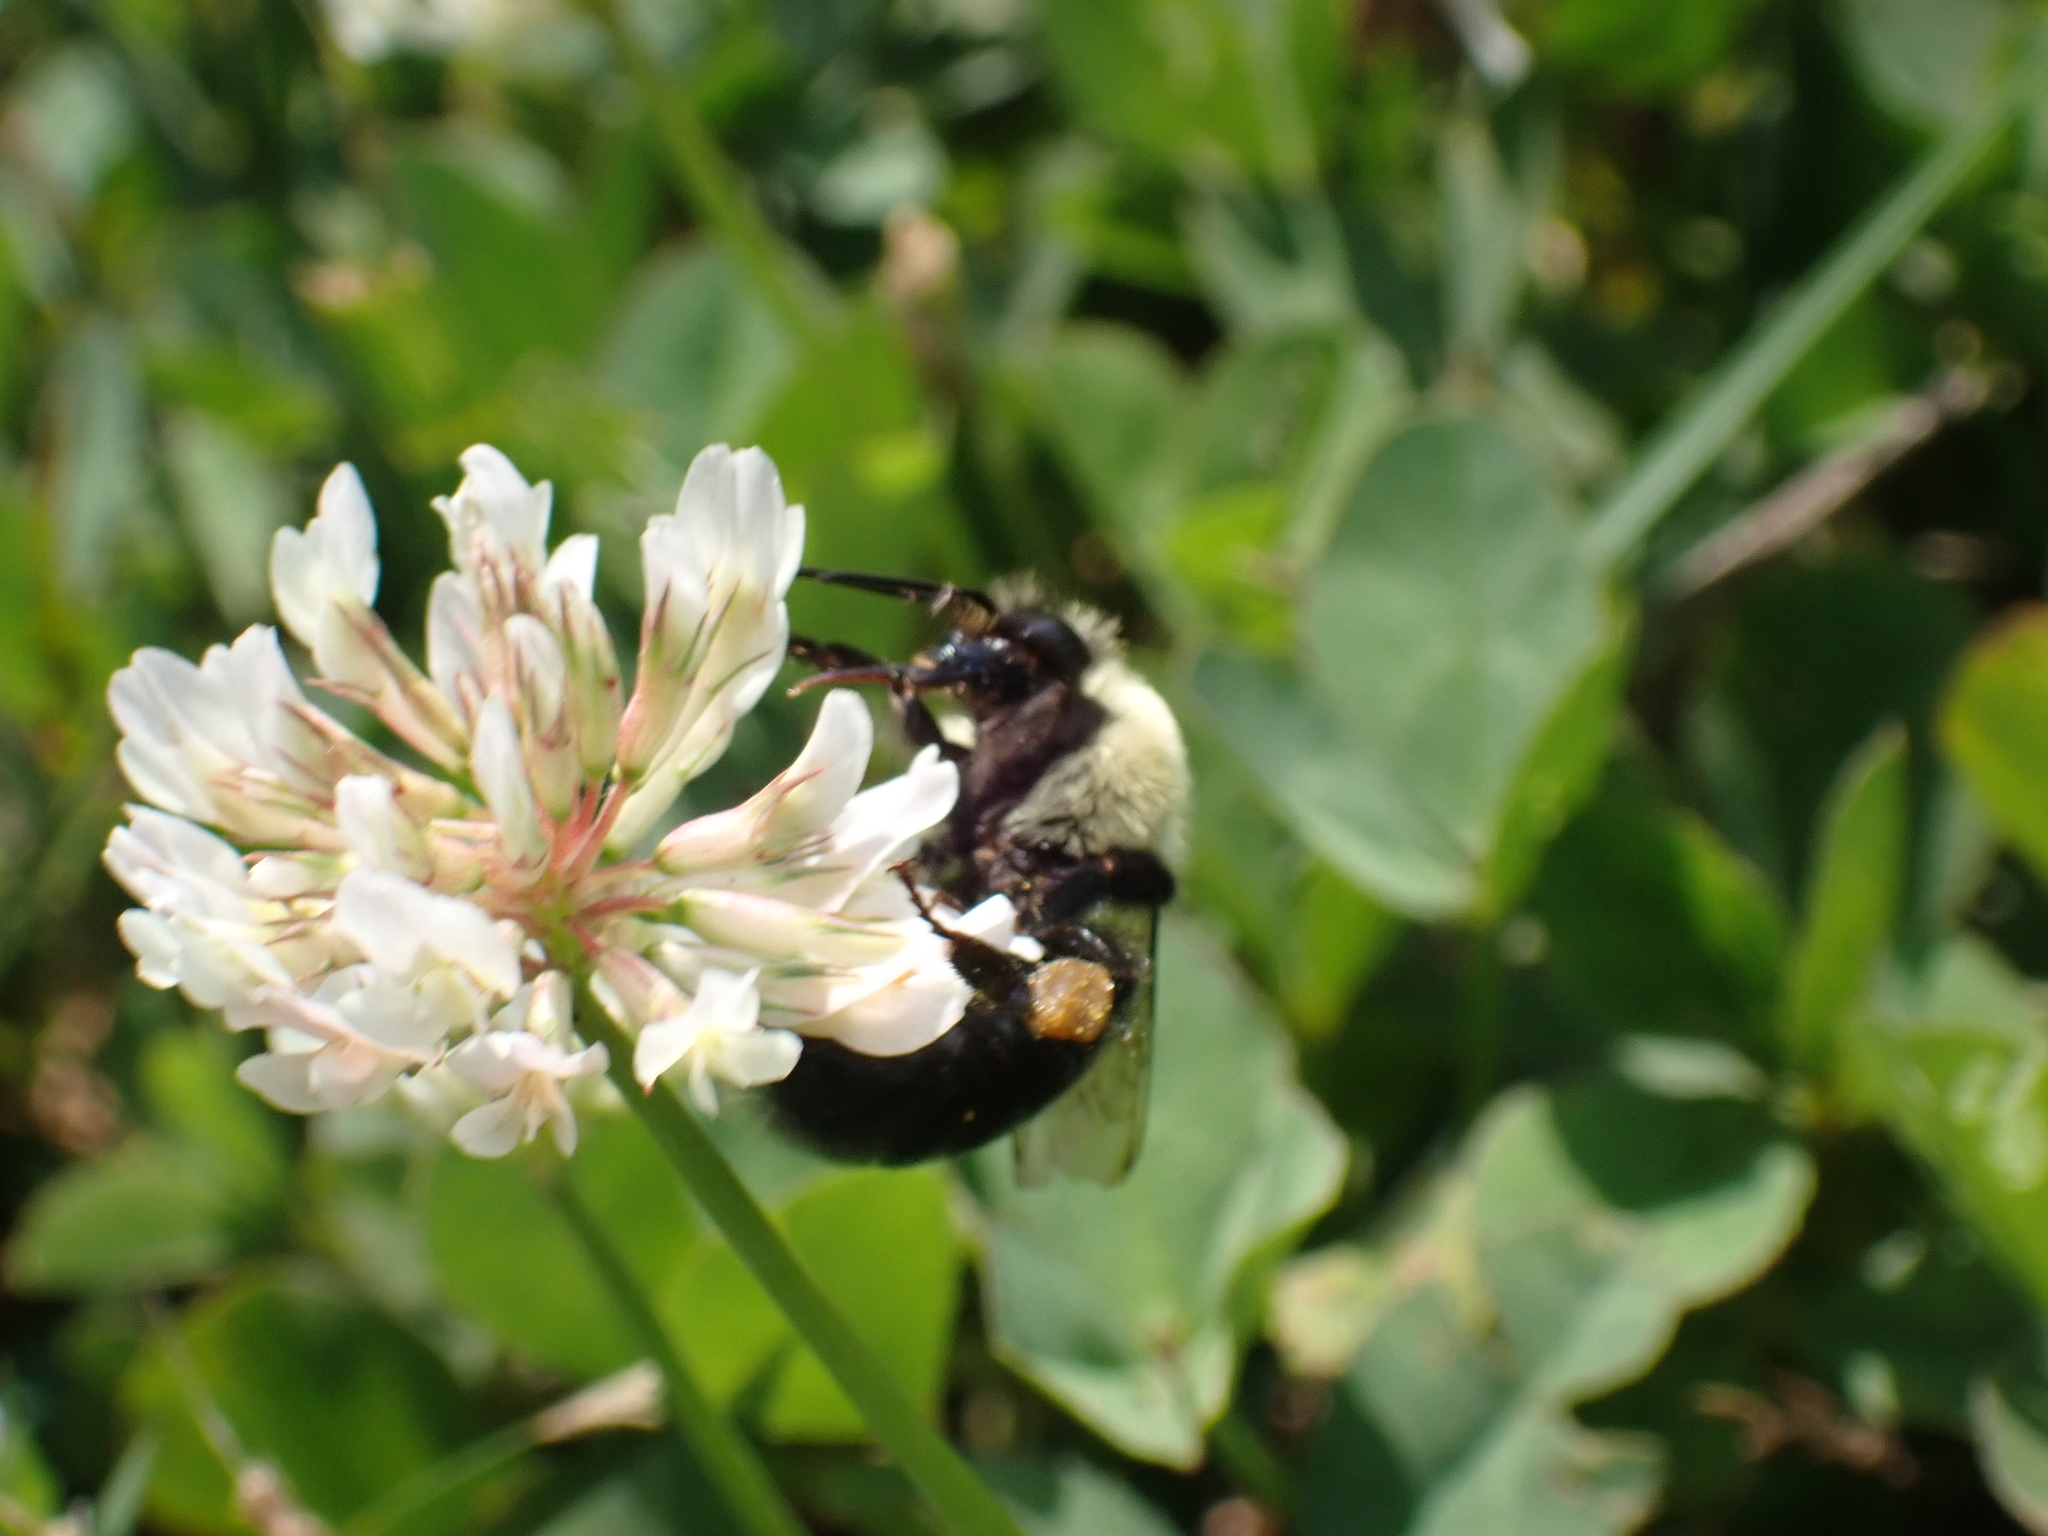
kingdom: Animalia
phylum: Arthropoda
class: Insecta
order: Hymenoptera
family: Apidae
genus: Bombus
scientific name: Bombus impatiens
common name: Common eastern bumble bee
